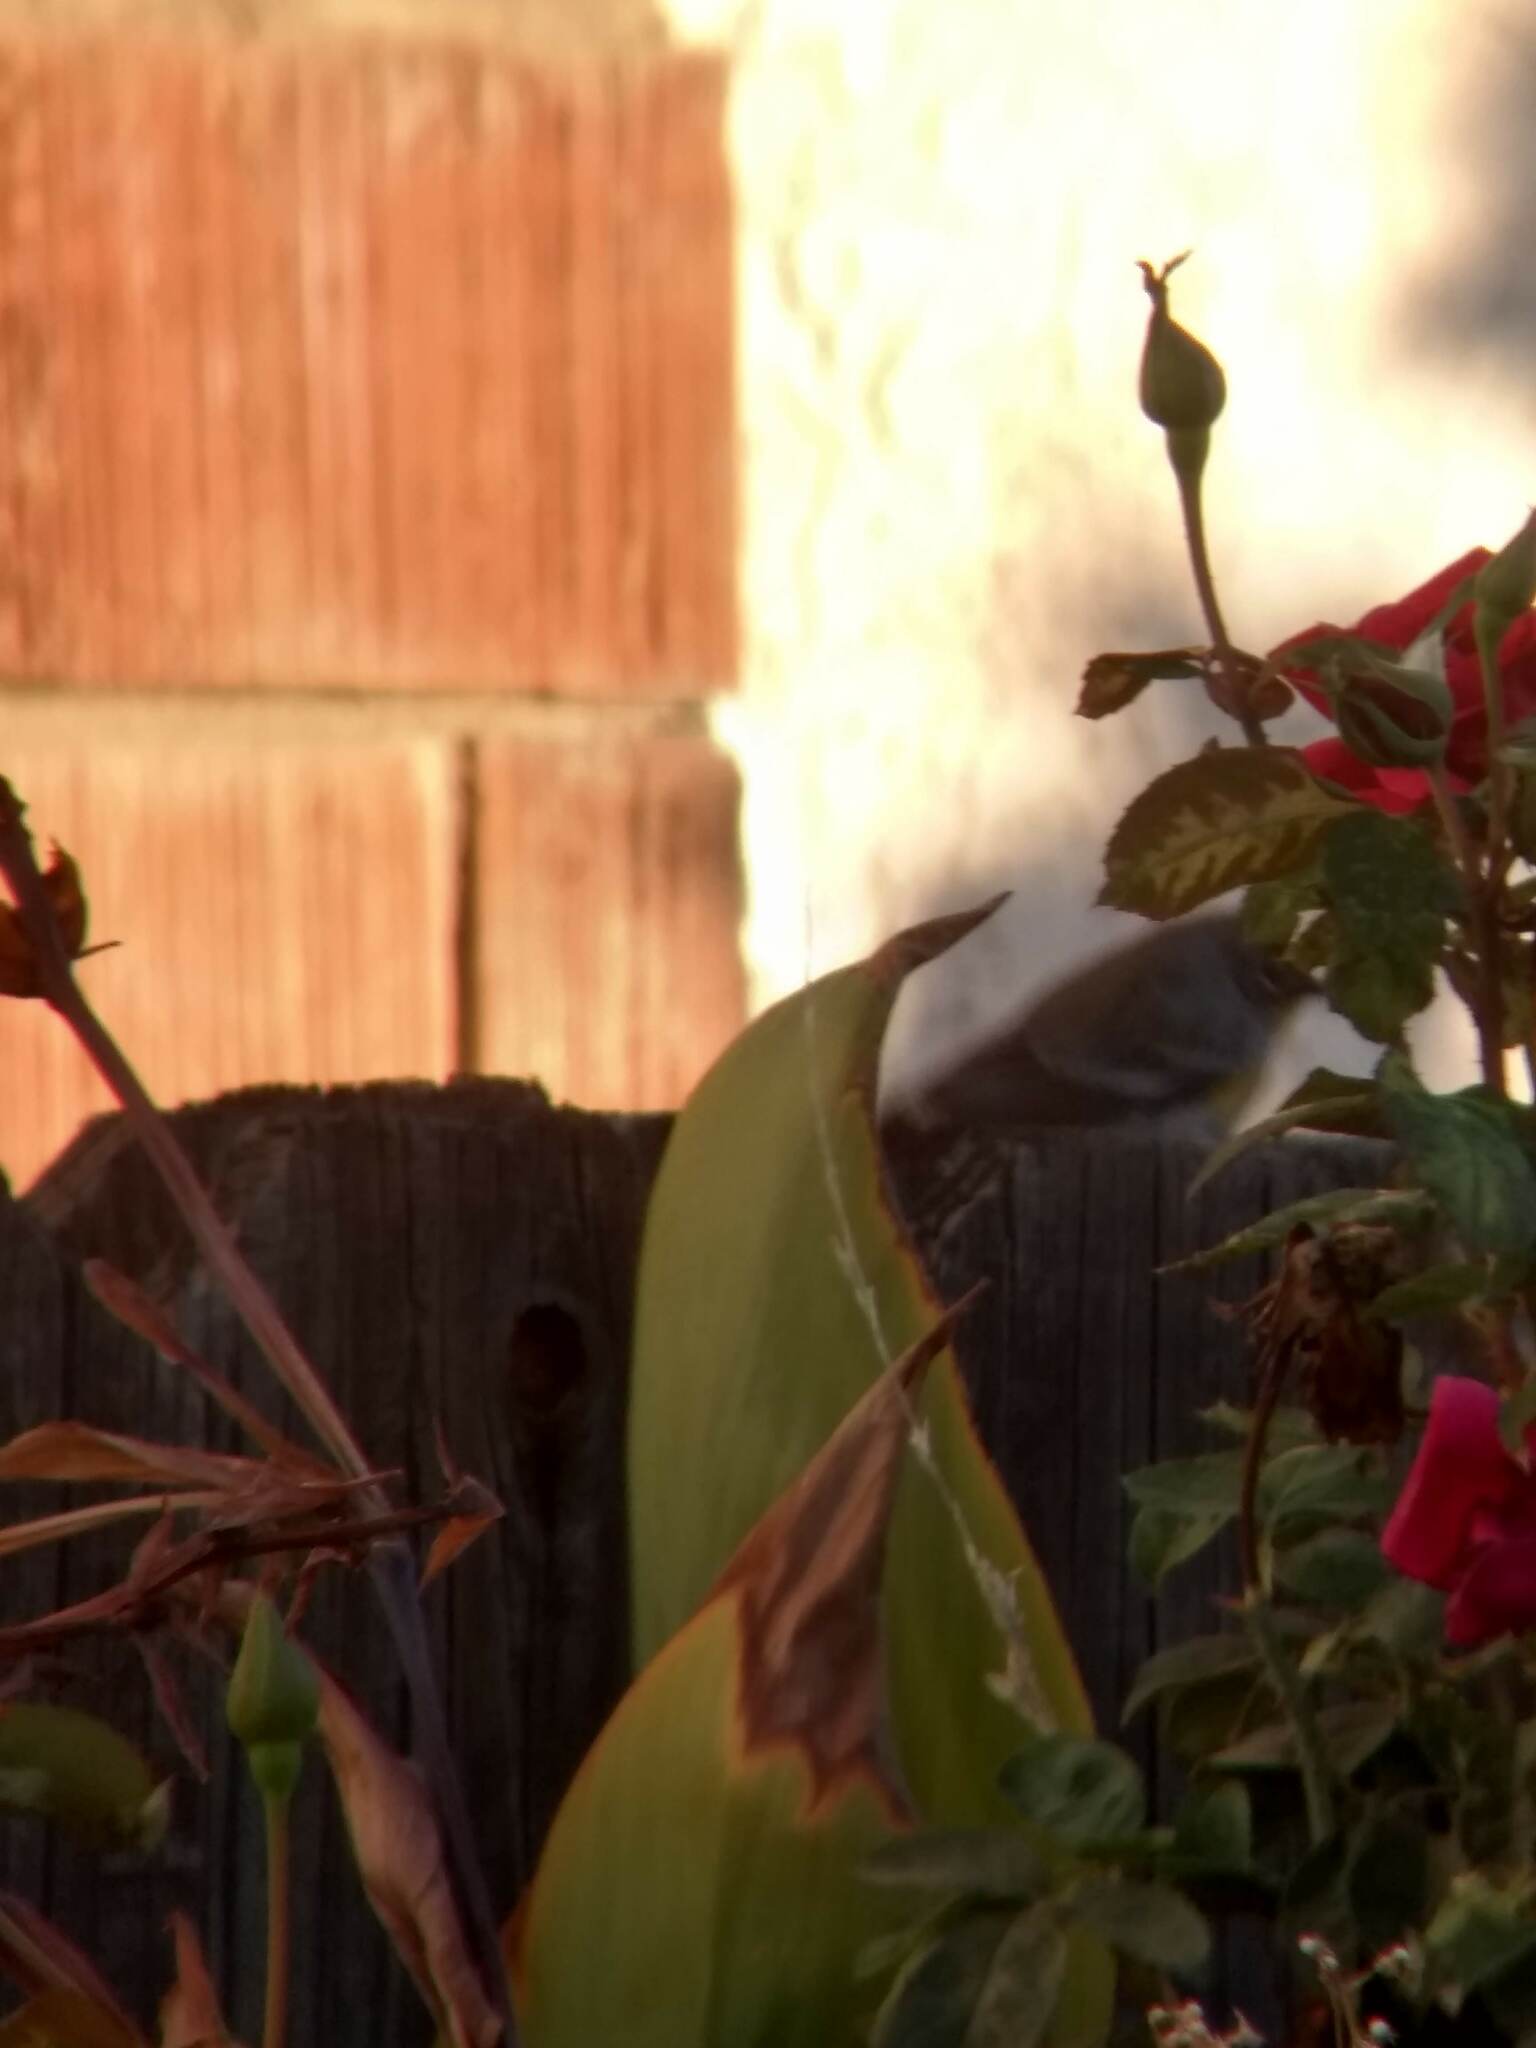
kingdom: Animalia
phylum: Chordata
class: Aves
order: Passeriformes
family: Parulidae
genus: Setophaga
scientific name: Setophaga coronata
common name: Myrtle warbler
